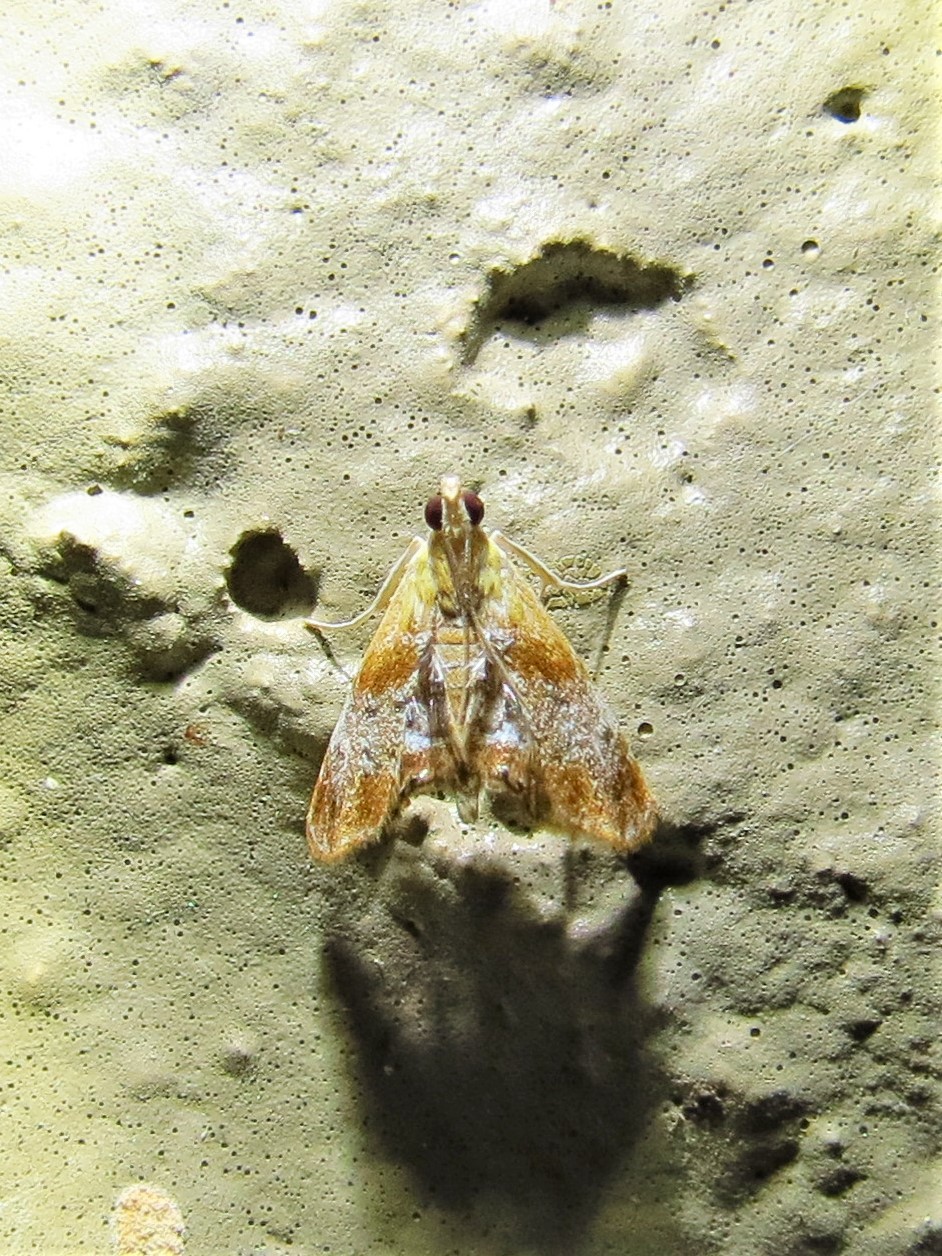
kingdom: Animalia
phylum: Arthropoda
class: Insecta
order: Lepidoptera
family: Crambidae
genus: Dicymolomia
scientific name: Dicymolomia julianalis
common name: Julia's dicymolomia moth
